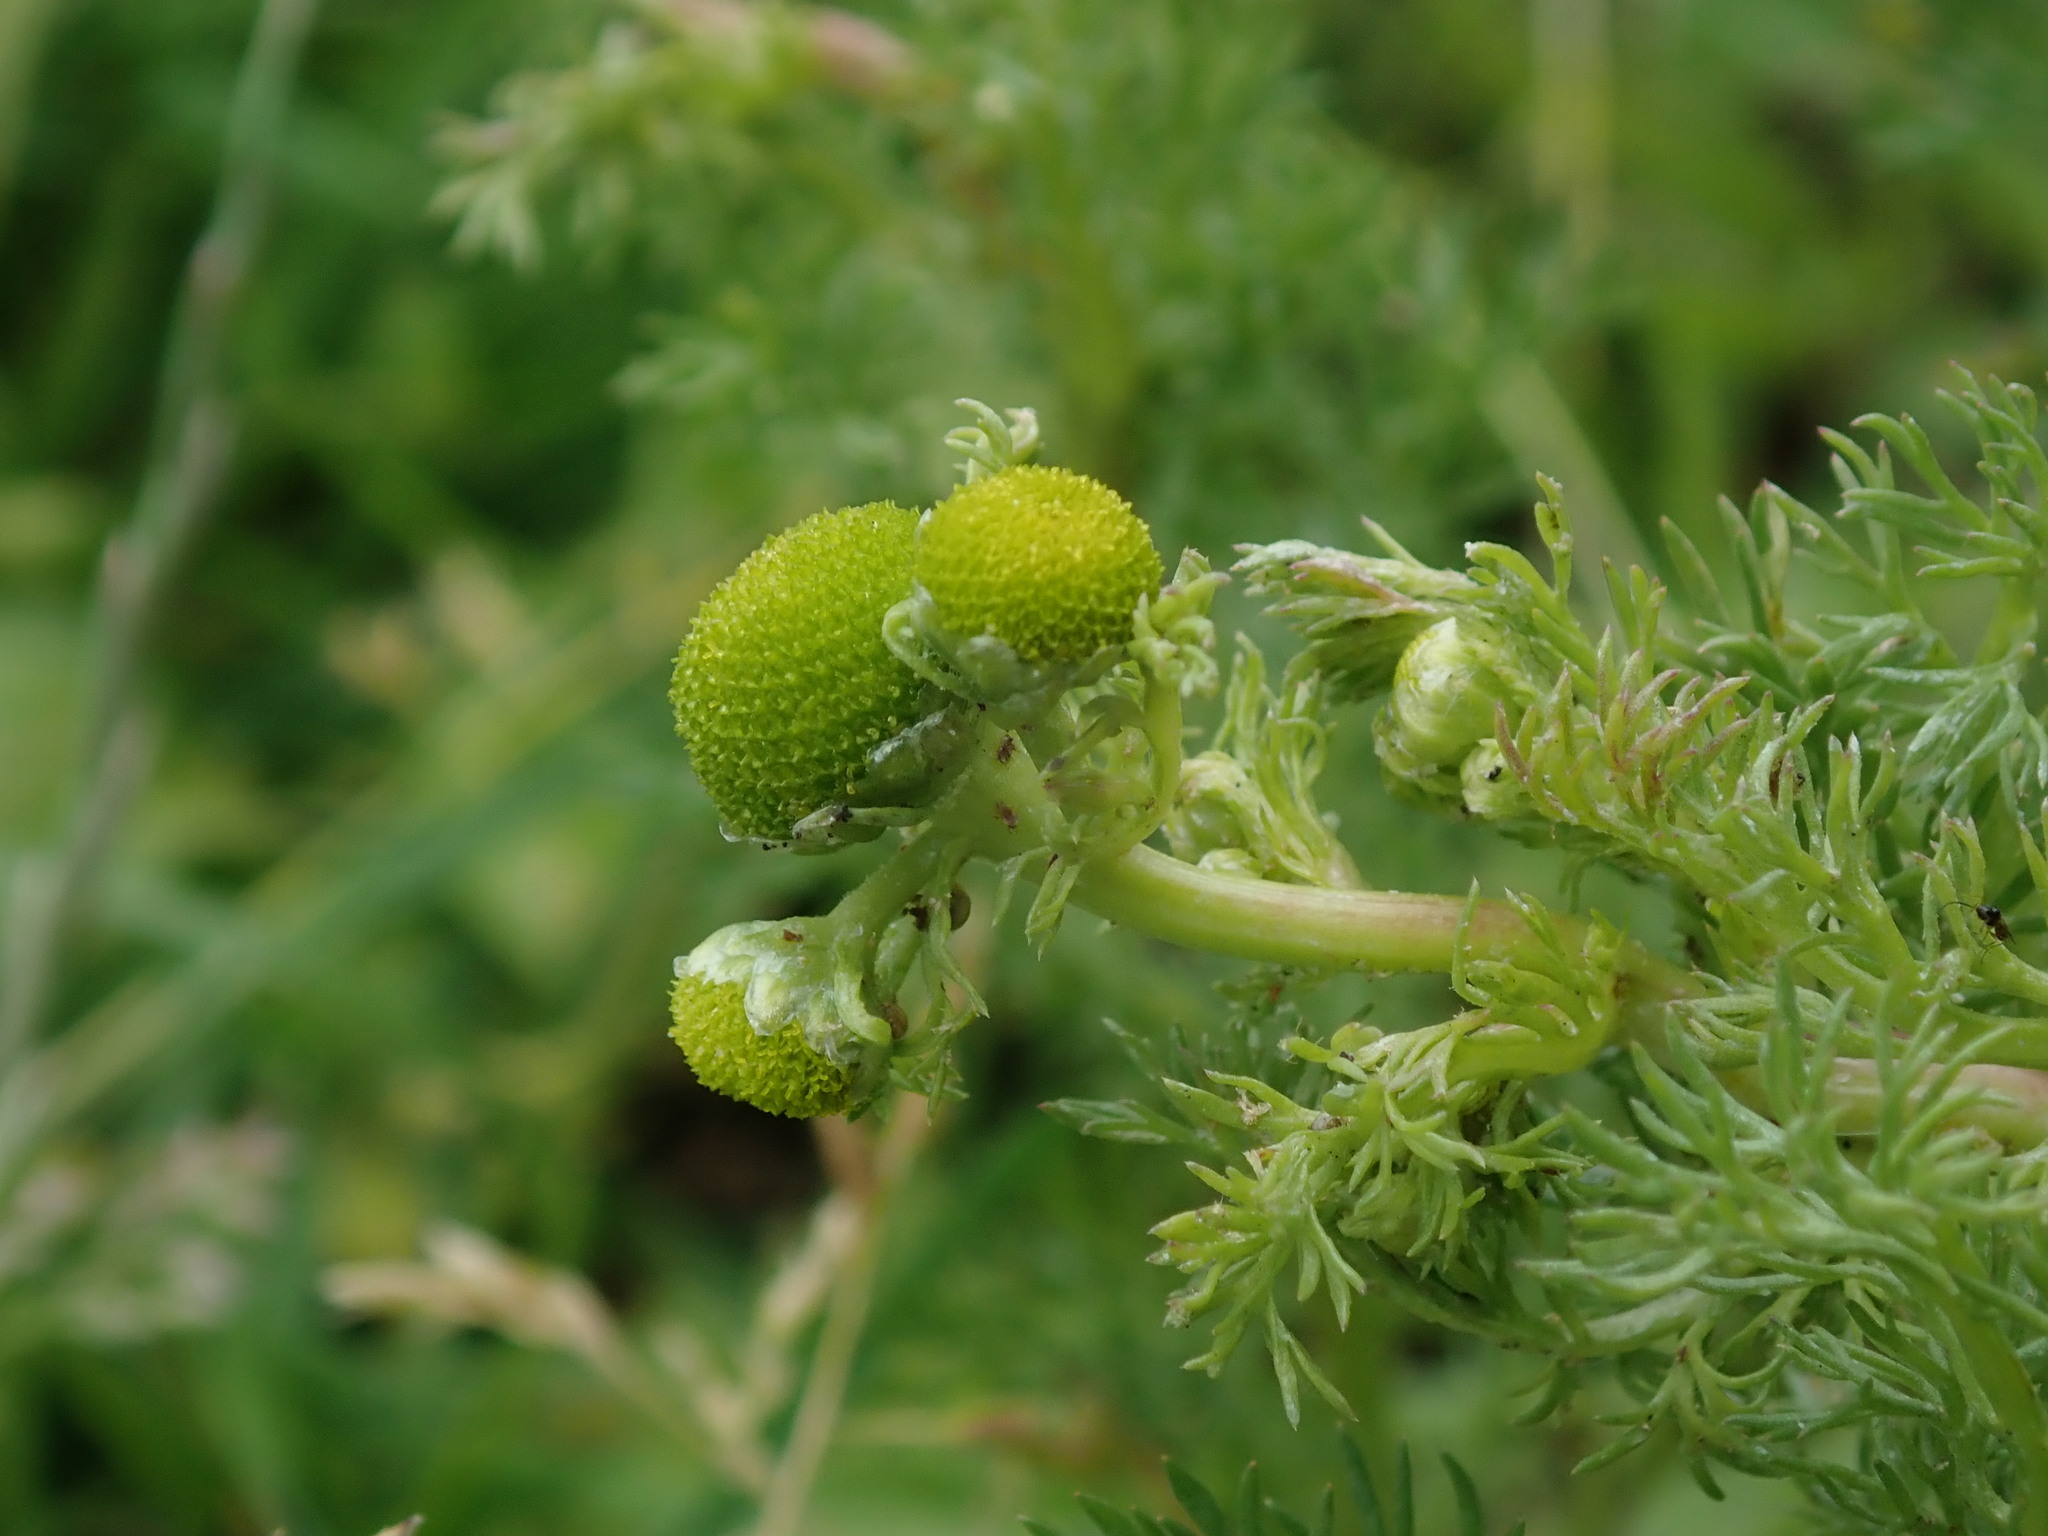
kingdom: Plantae
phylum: Tracheophyta
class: Magnoliopsida
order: Asterales
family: Asteraceae
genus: Matricaria
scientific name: Matricaria discoidea
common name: Disc mayweed
